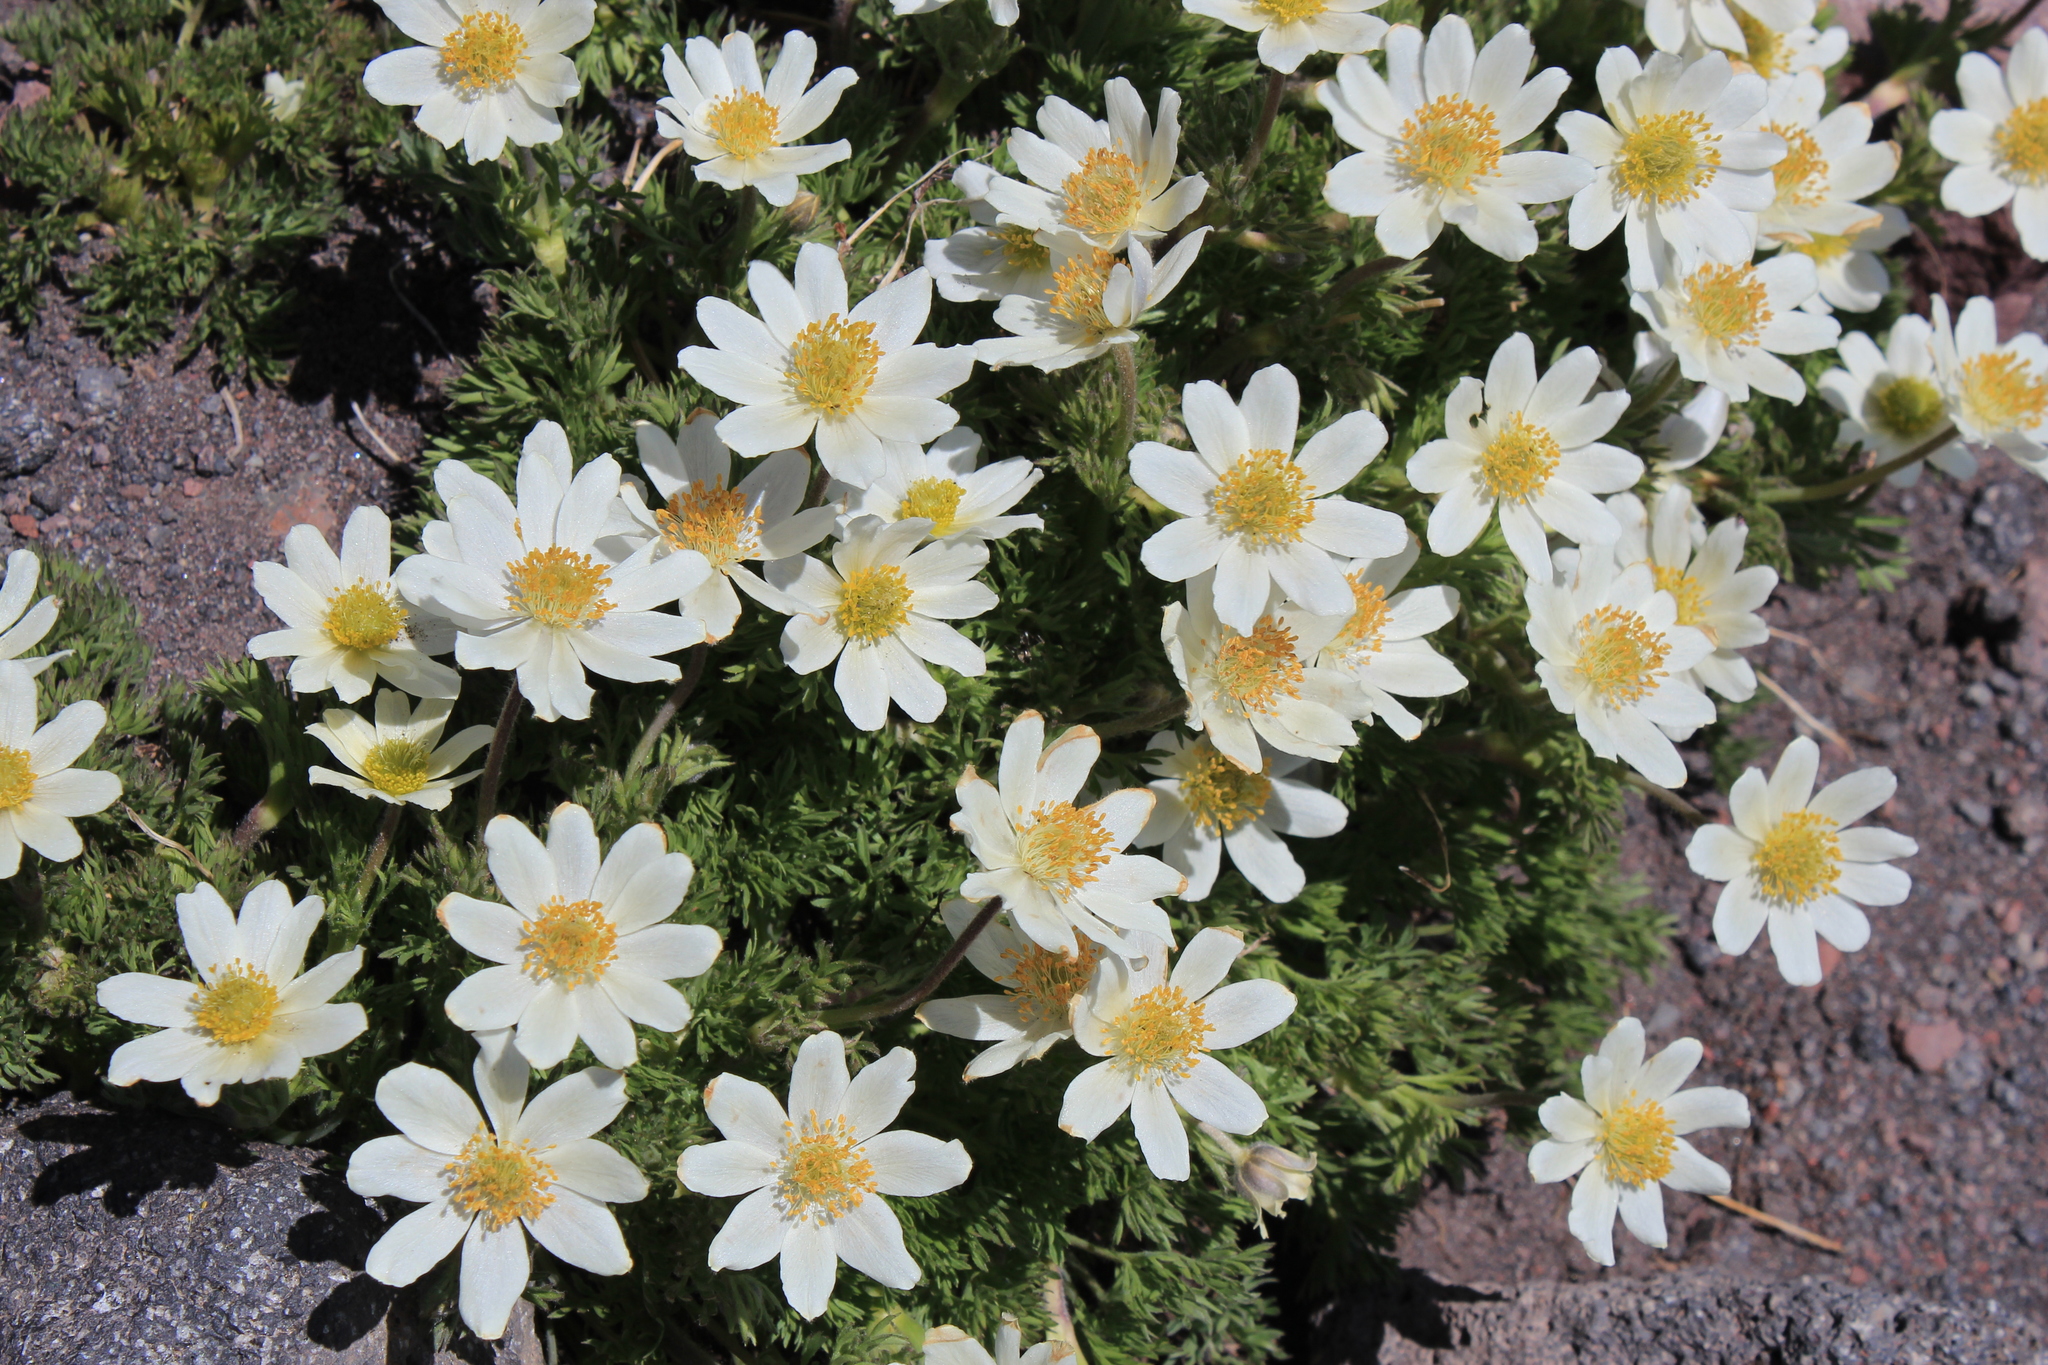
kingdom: Plantae
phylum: Tracheophyta
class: Magnoliopsida
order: Ranunculales
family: Ranunculaceae
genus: Anemone
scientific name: Anemone drummondii
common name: Drummond's anemone
